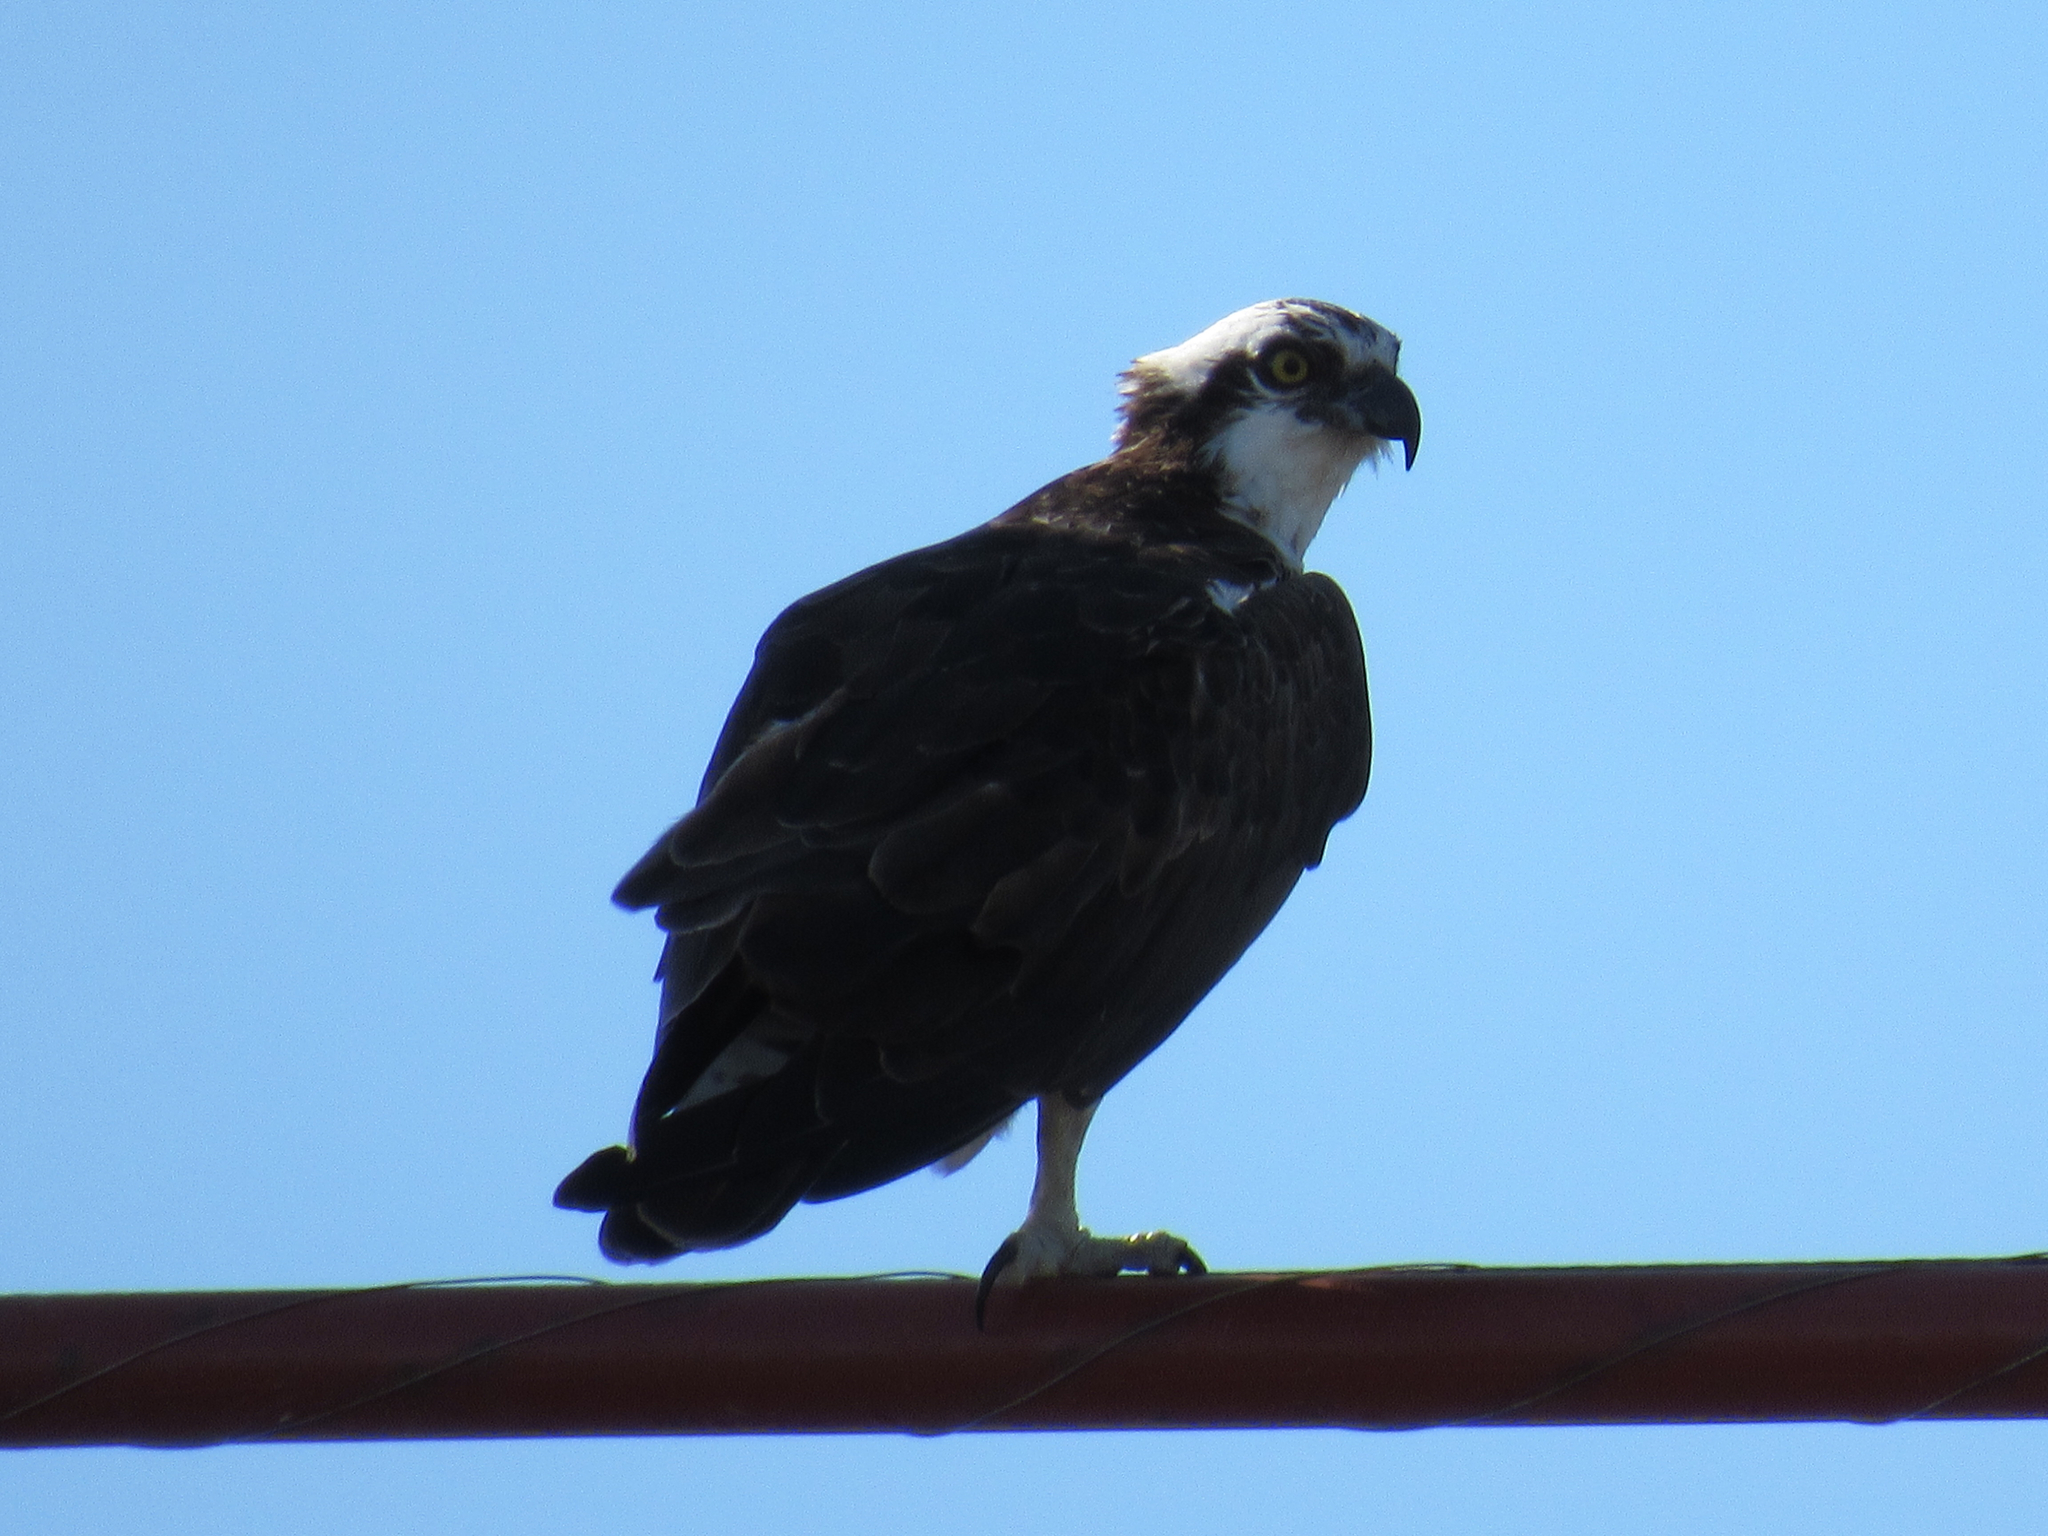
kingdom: Animalia
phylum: Chordata
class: Aves
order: Accipitriformes
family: Pandionidae
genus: Pandion
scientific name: Pandion haliaetus
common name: Osprey
